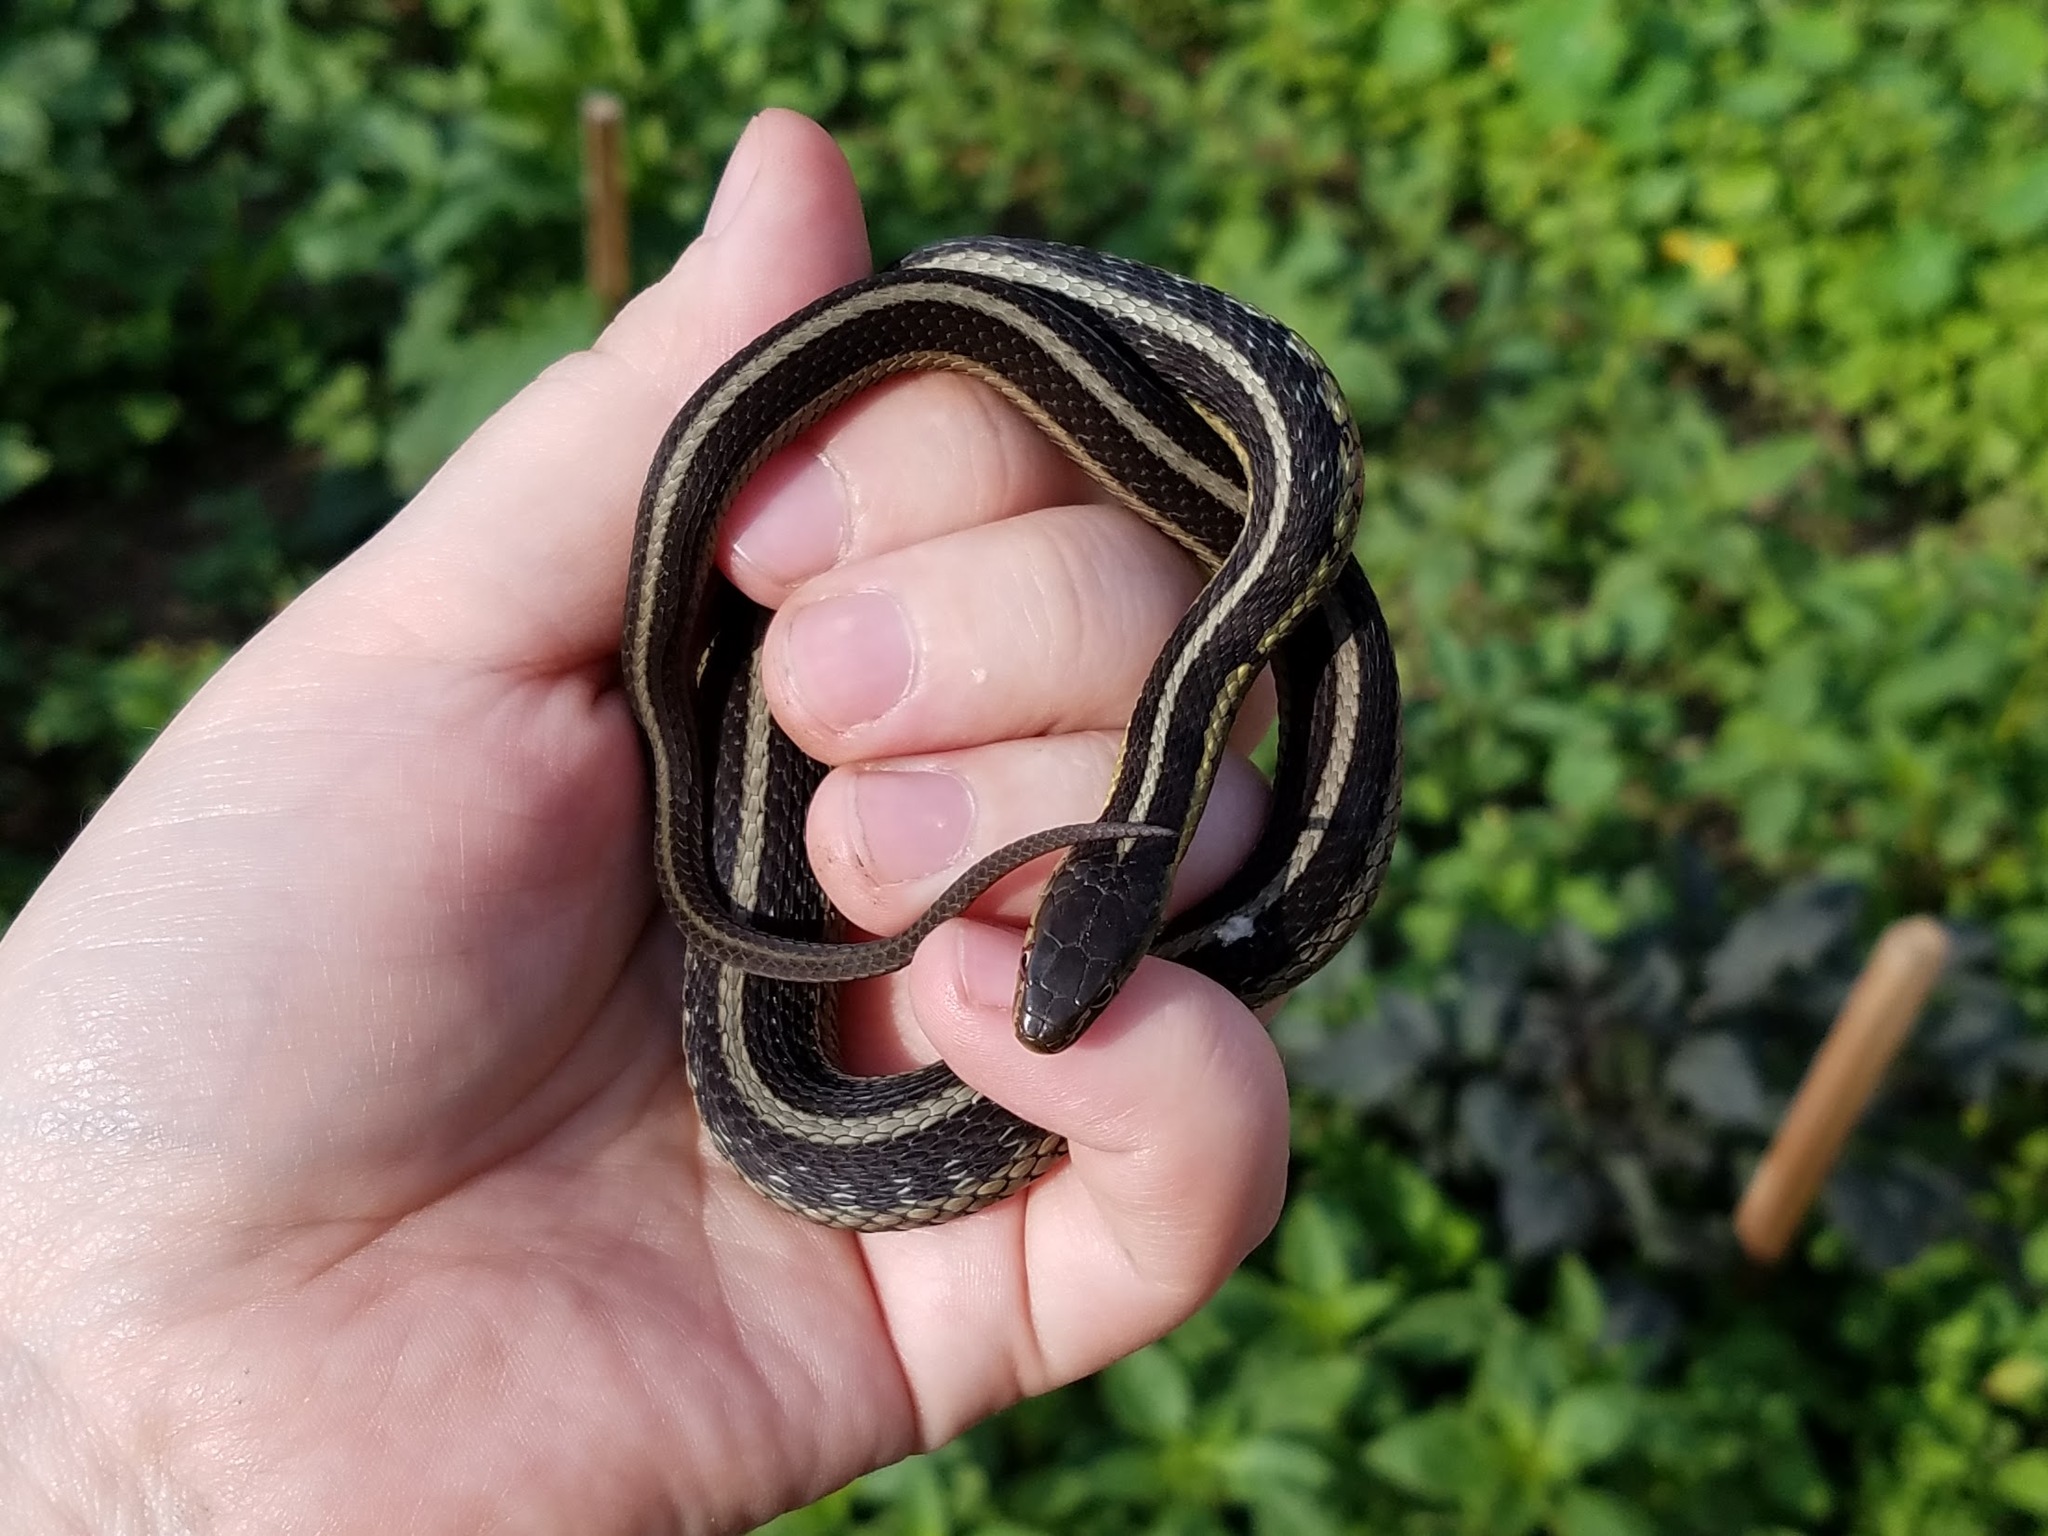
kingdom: Animalia
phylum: Chordata
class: Squamata
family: Colubridae
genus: Thamnophis
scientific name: Thamnophis sirtalis
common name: Common garter snake
